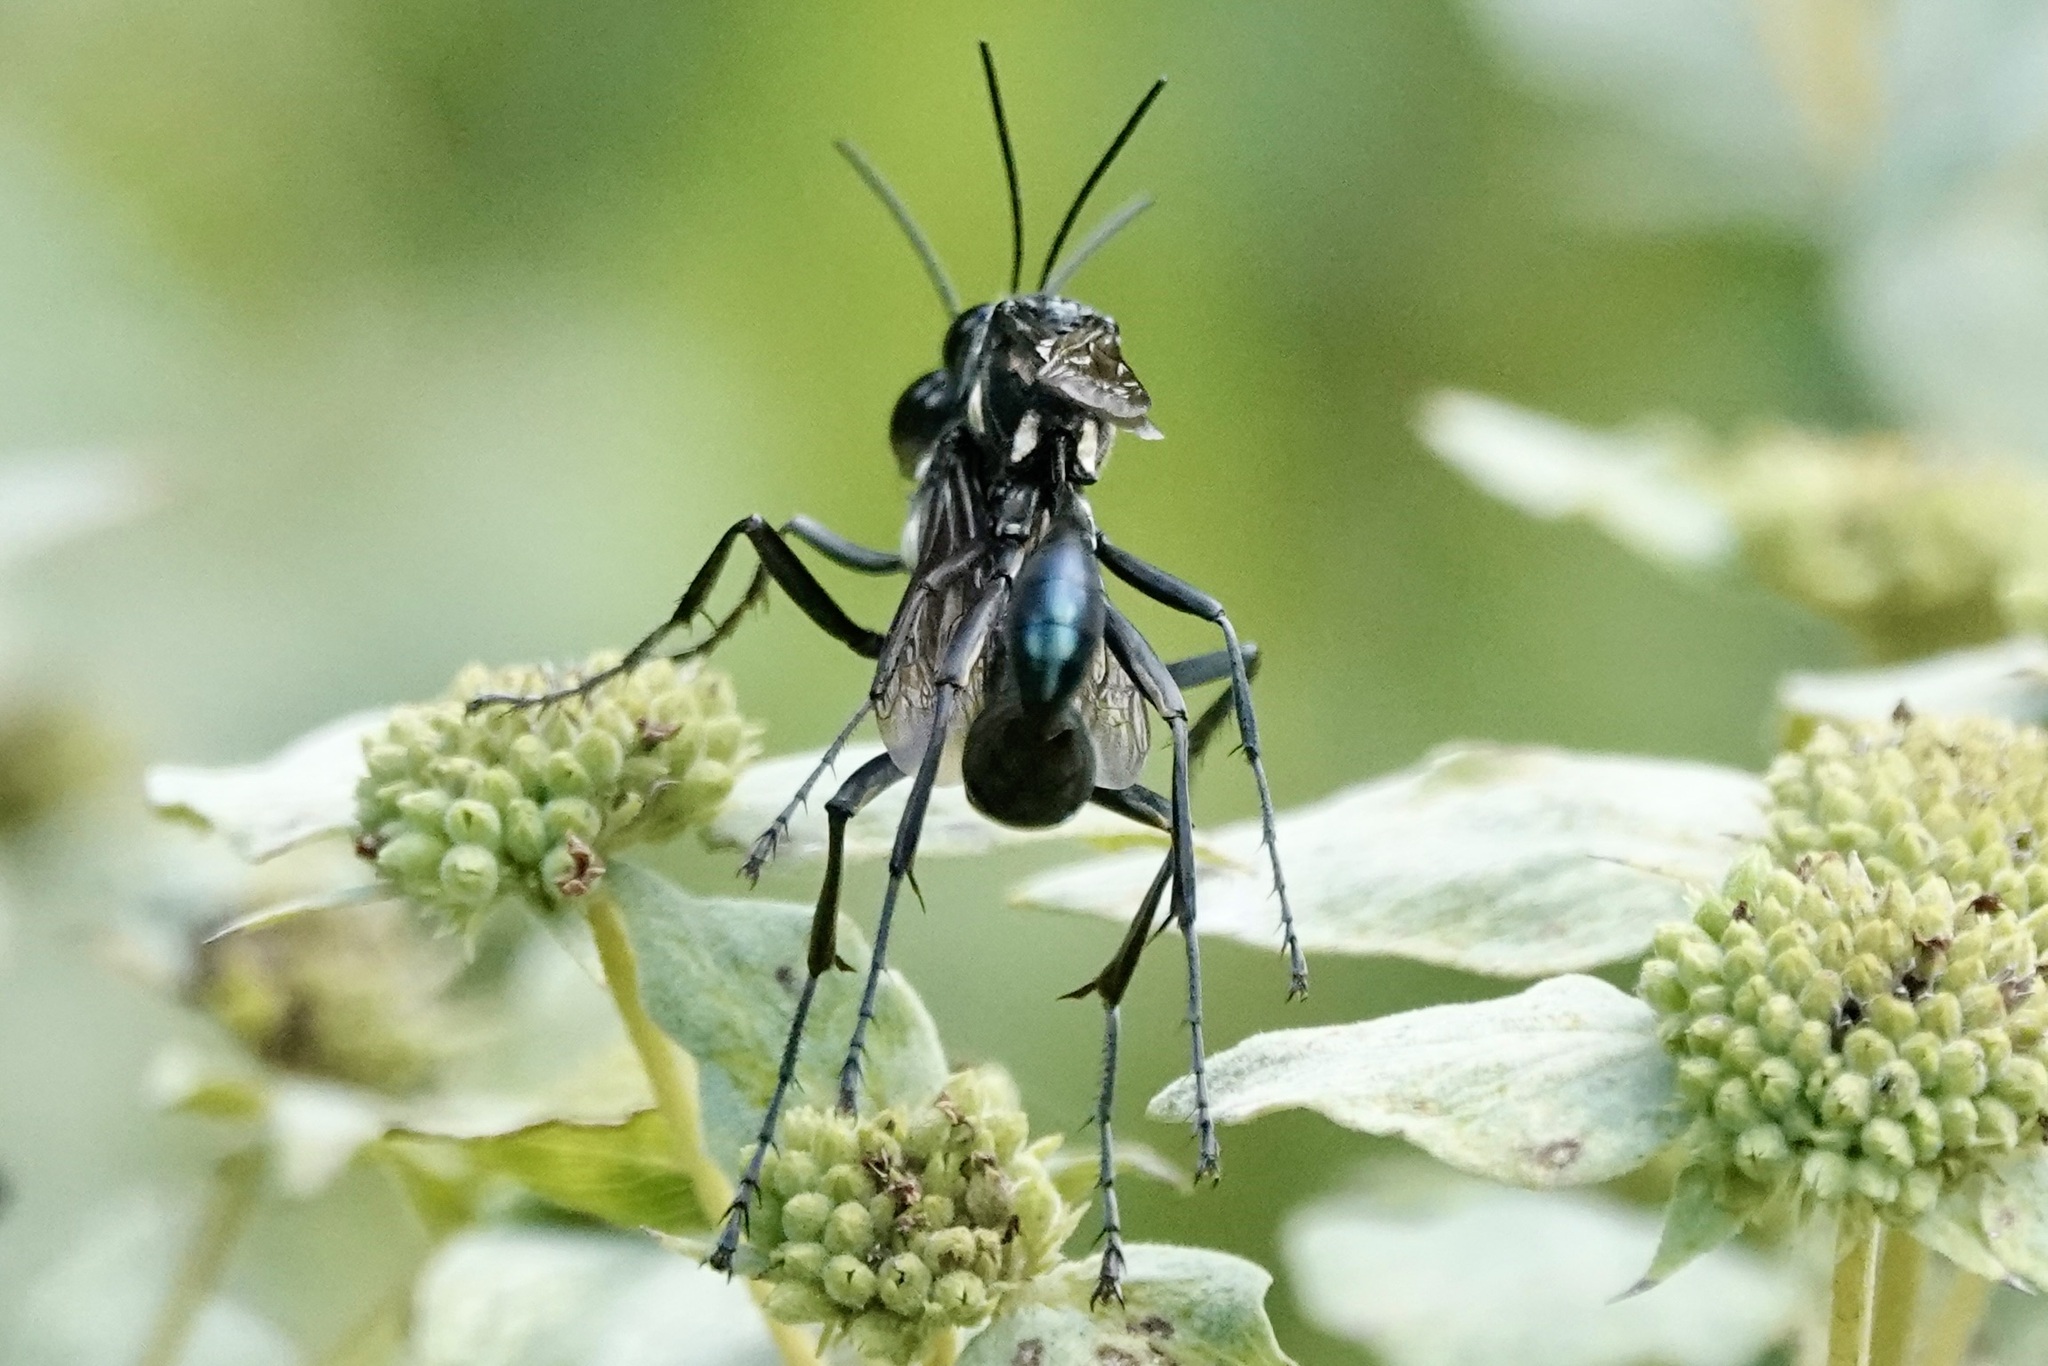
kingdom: Animalia
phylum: Arthropoda
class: Insecta
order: Hymenoptera
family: Sphecidae
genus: Eremnophila
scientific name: Eremnophila aureonotata
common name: Gold-marked thread-waisted wasp
